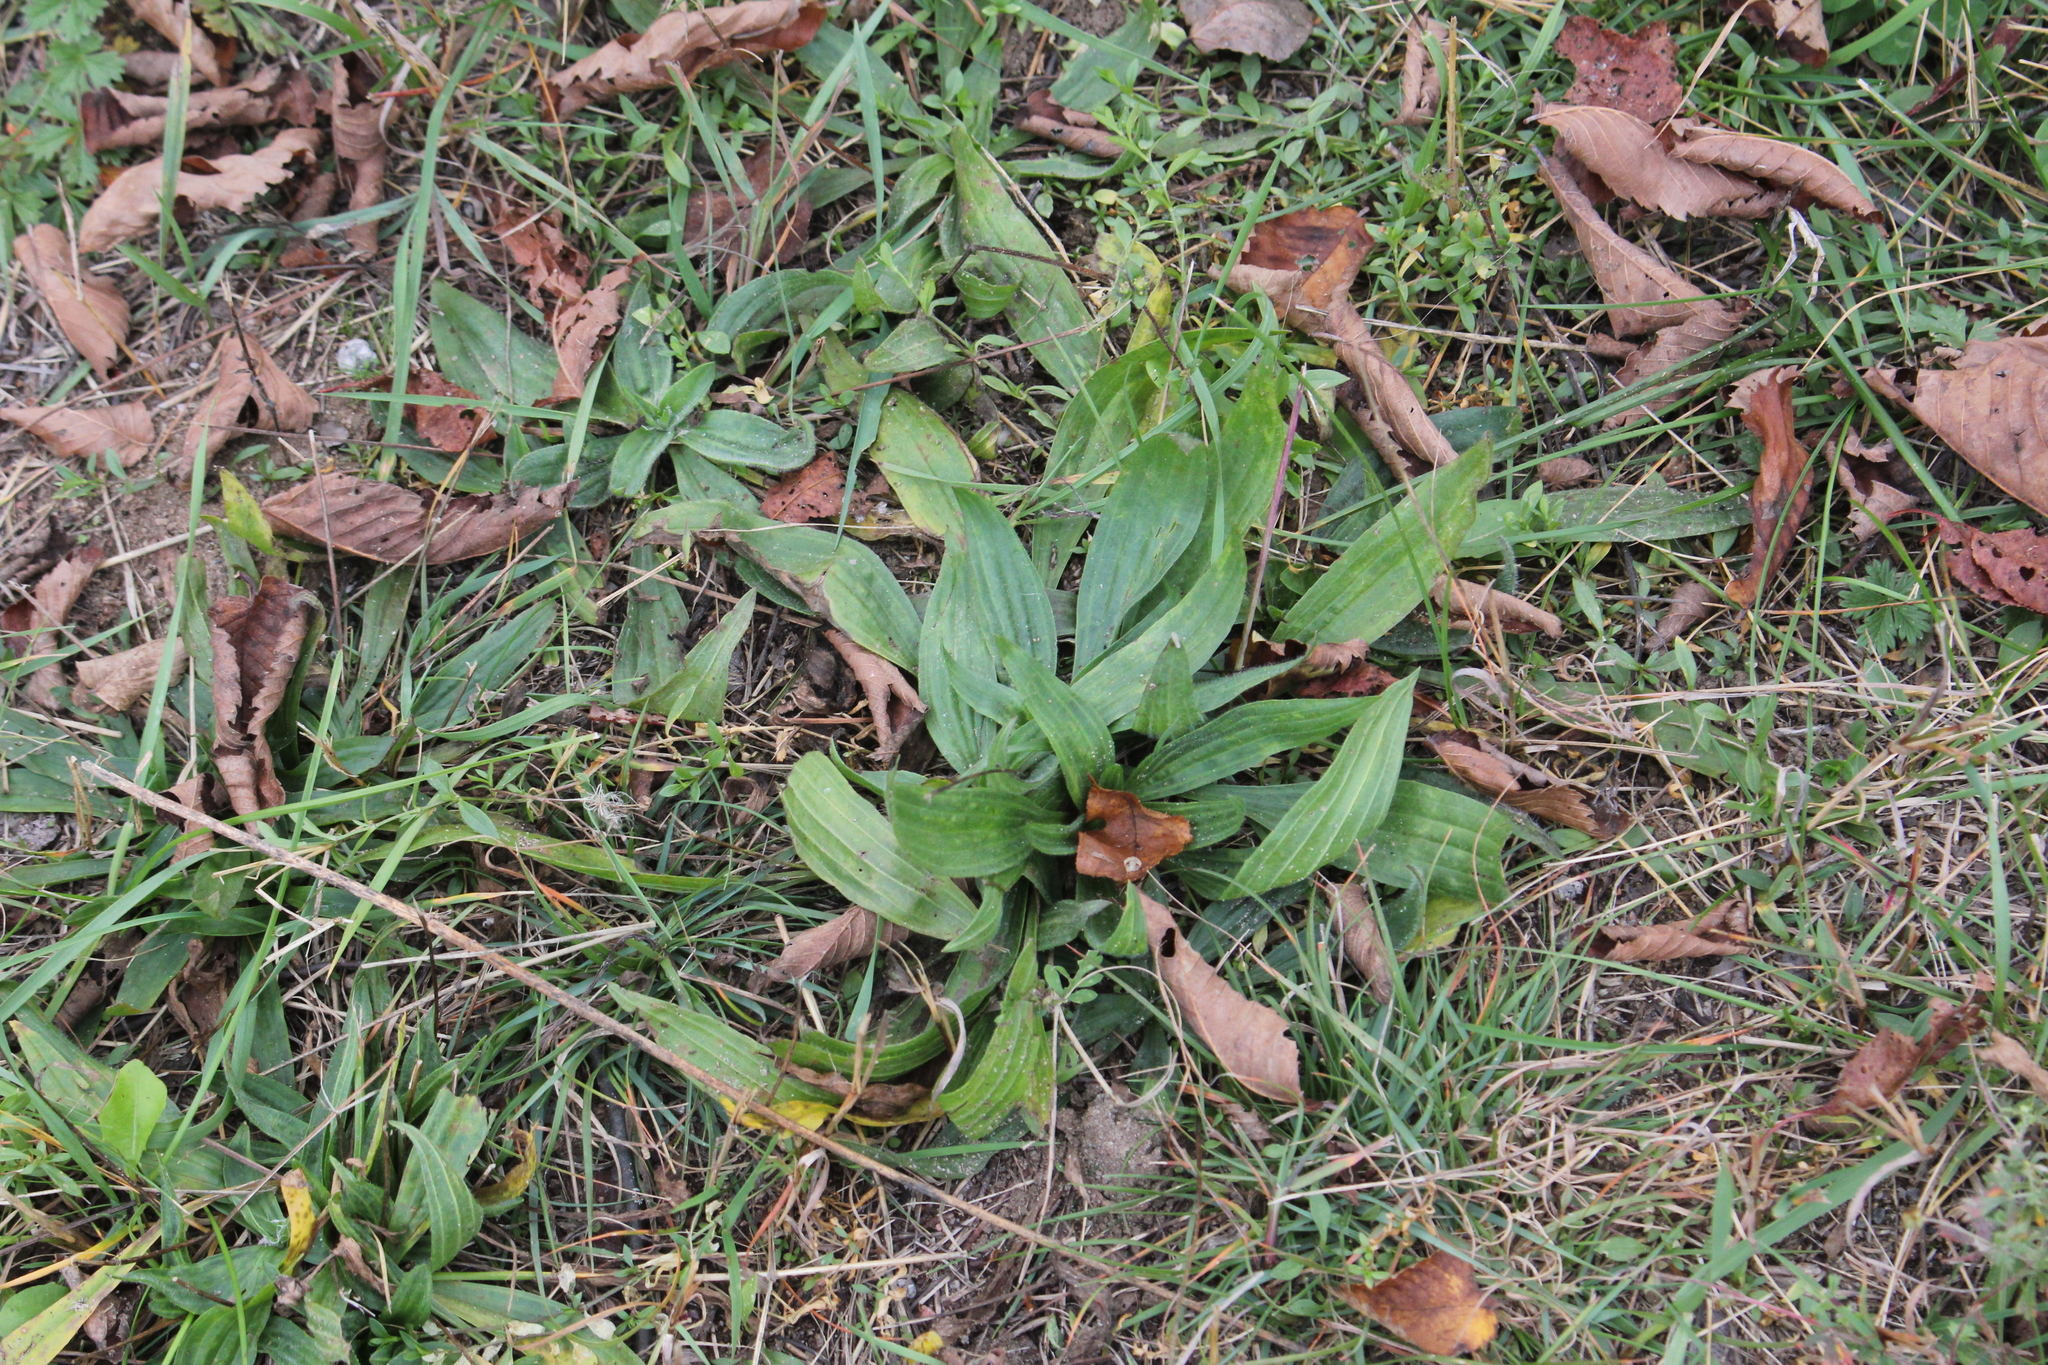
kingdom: Plantae
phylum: Tracheophyta
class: Magnoliopsida
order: Lamiales
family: Plantaginaceae
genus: Plantago
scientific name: Plantago lanceolata
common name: Ribwort plantain
